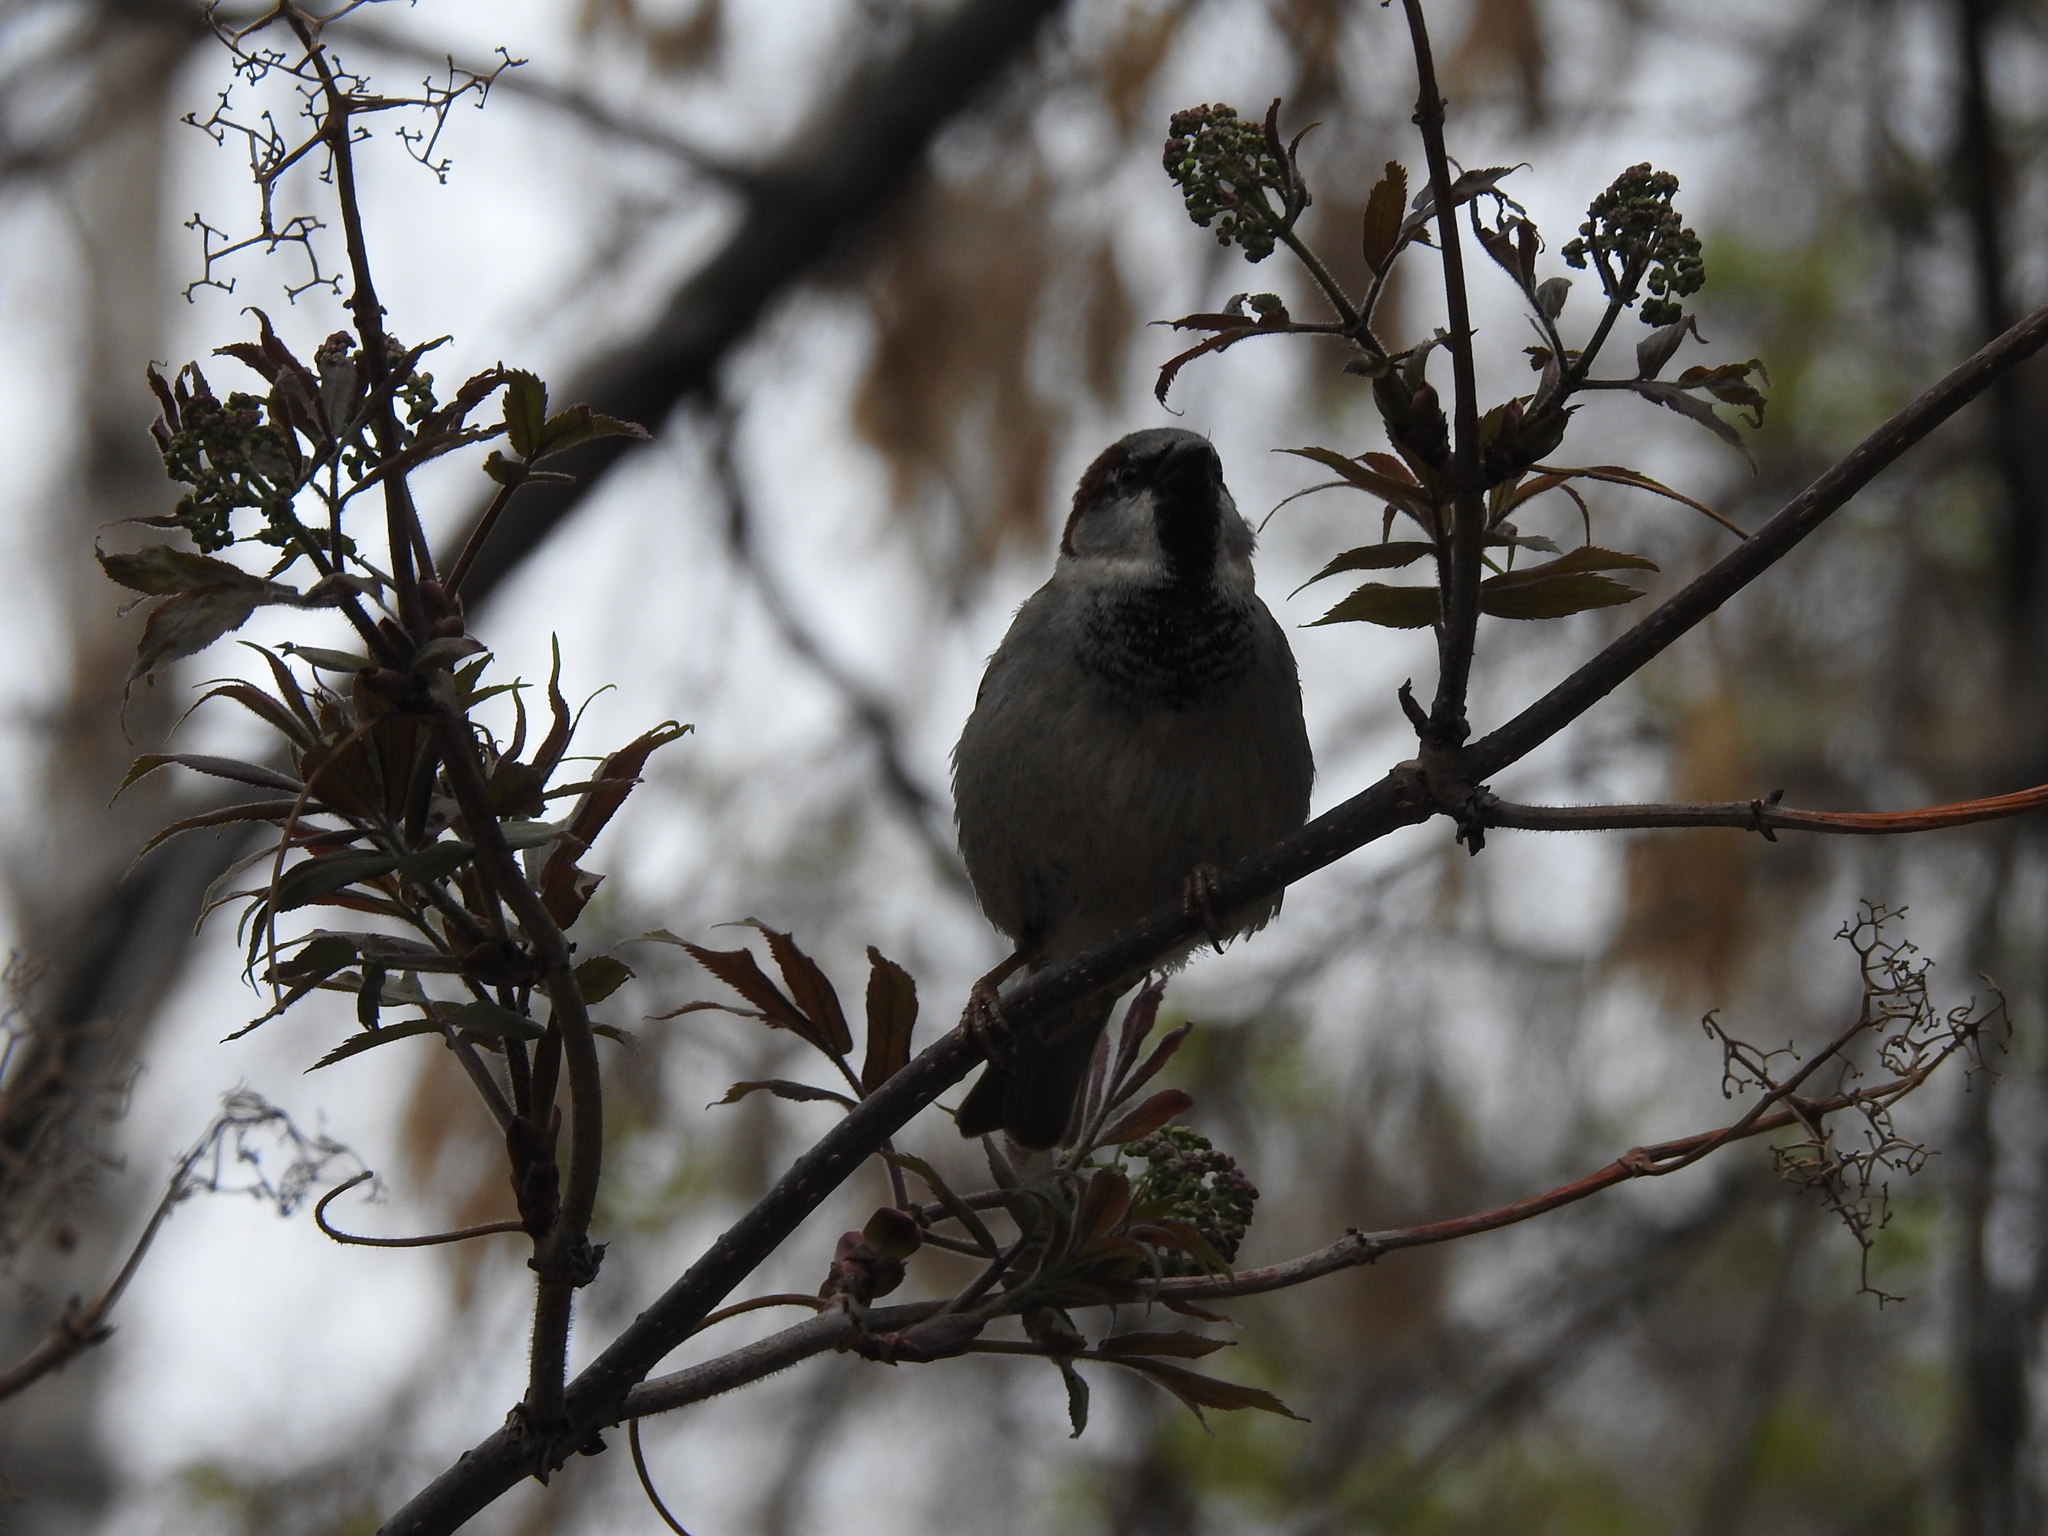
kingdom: Animalia
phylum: Chordata
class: Aves
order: Passeriformes
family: Passeridae
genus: Passer
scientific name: Passer domesticus
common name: House sparrow
